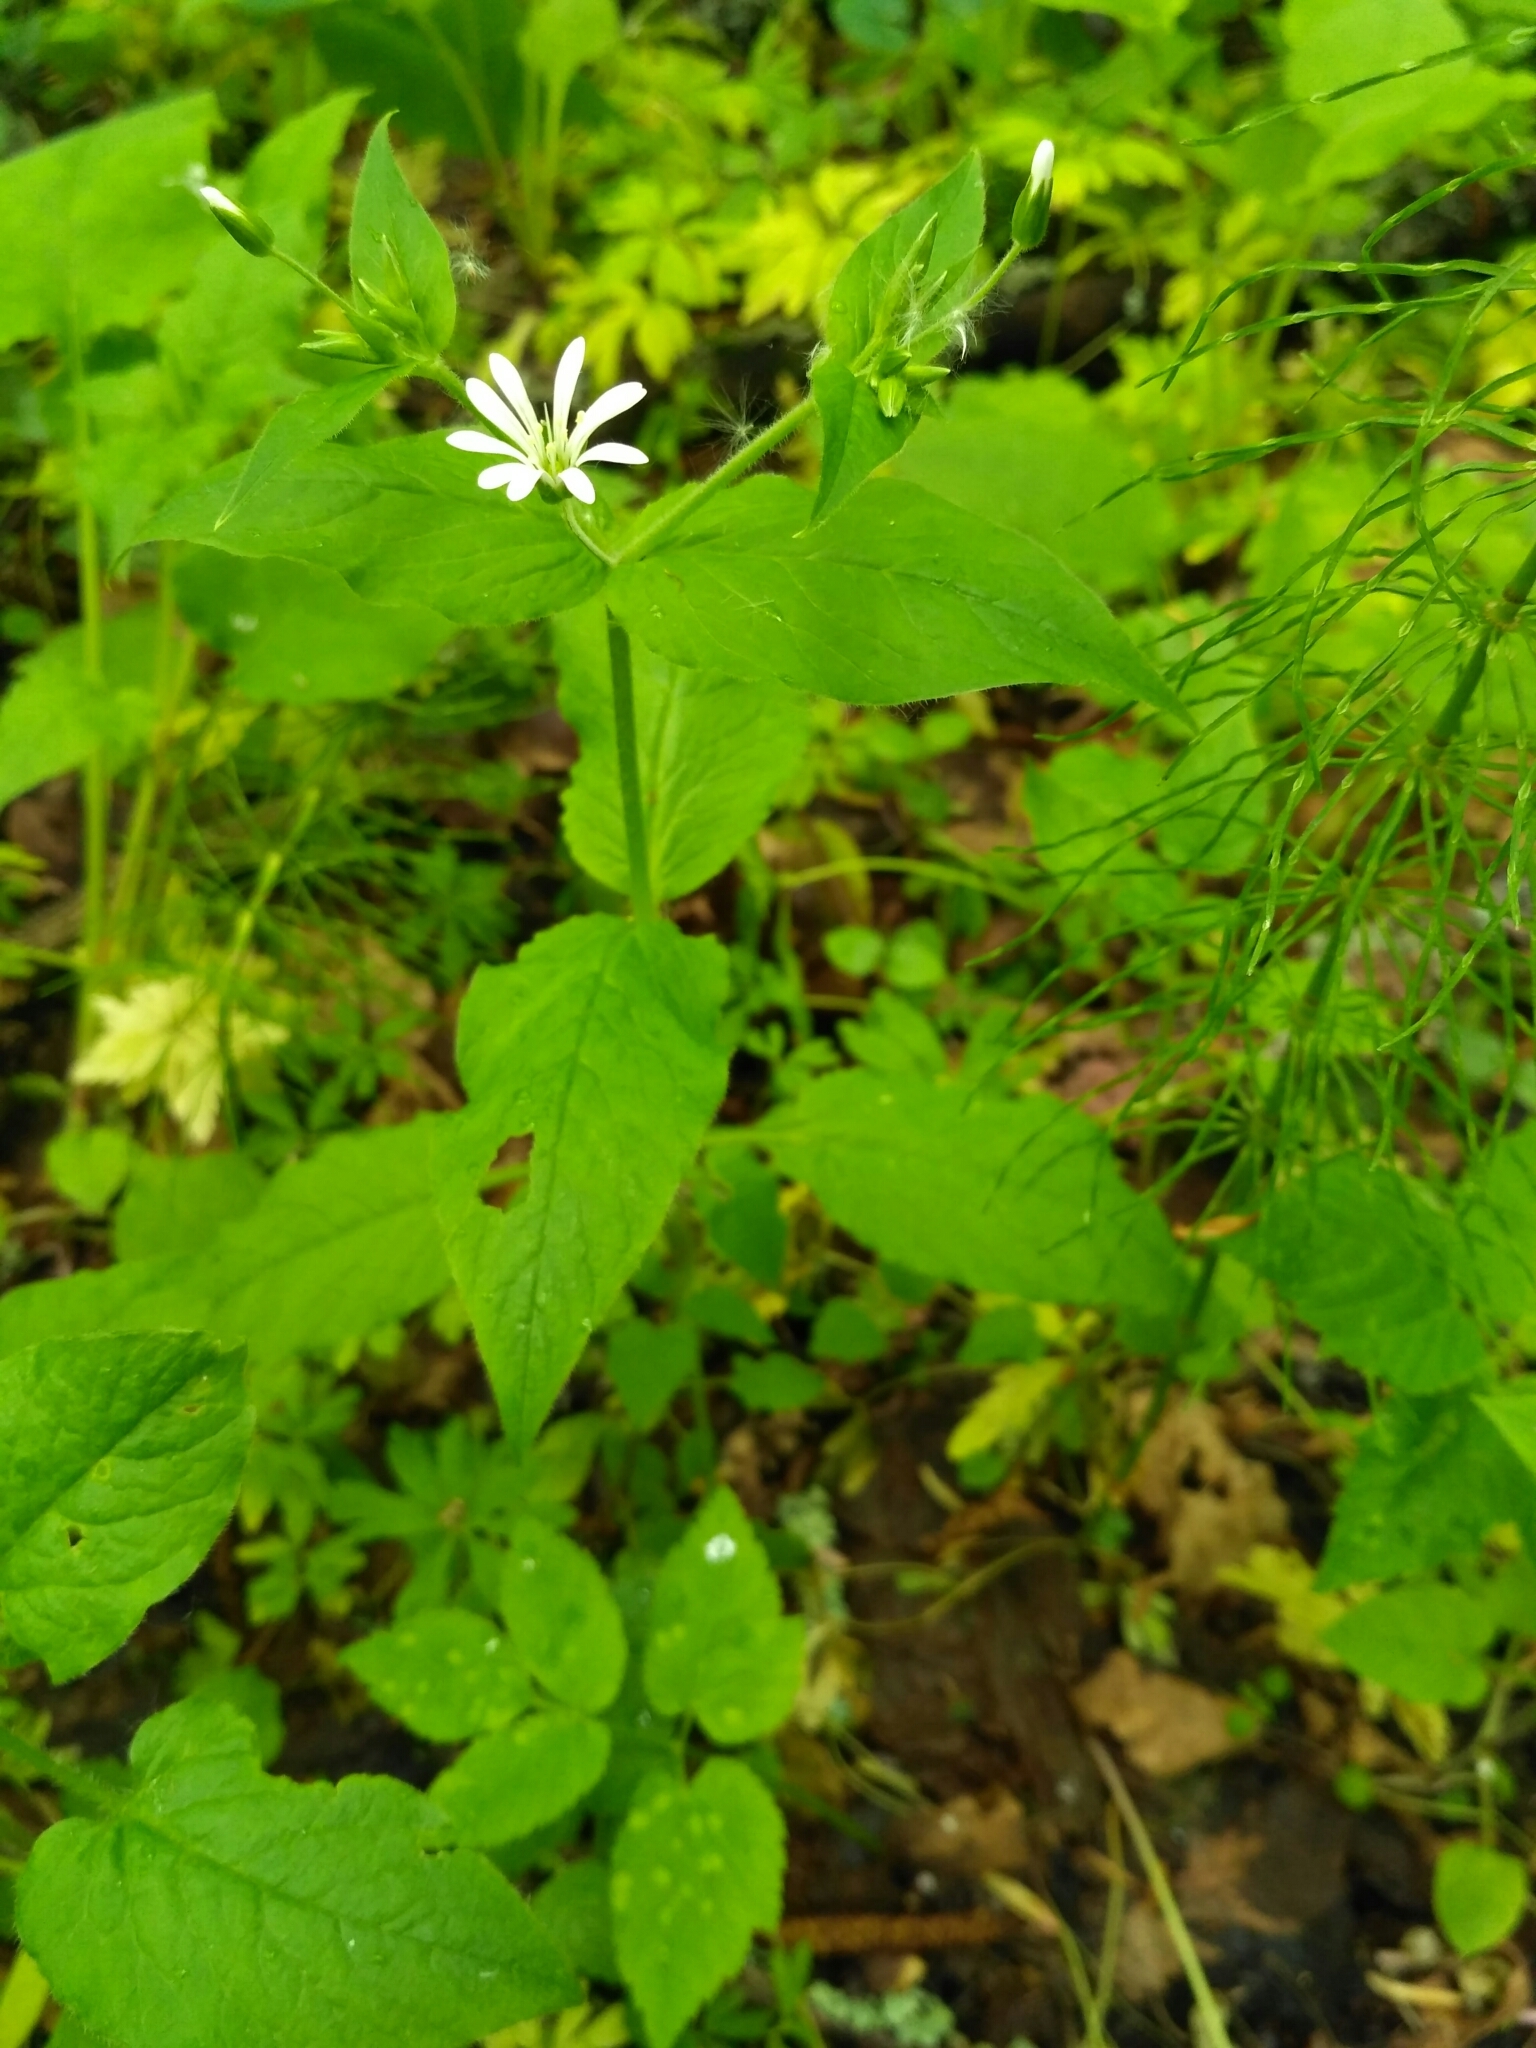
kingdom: Plantae
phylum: Tracheophyta
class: Magnoliopsida
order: Caryophyllales
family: Caryophyllaceae
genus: Stellaria
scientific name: Stellaria nemorum
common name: Wood stitchwort
